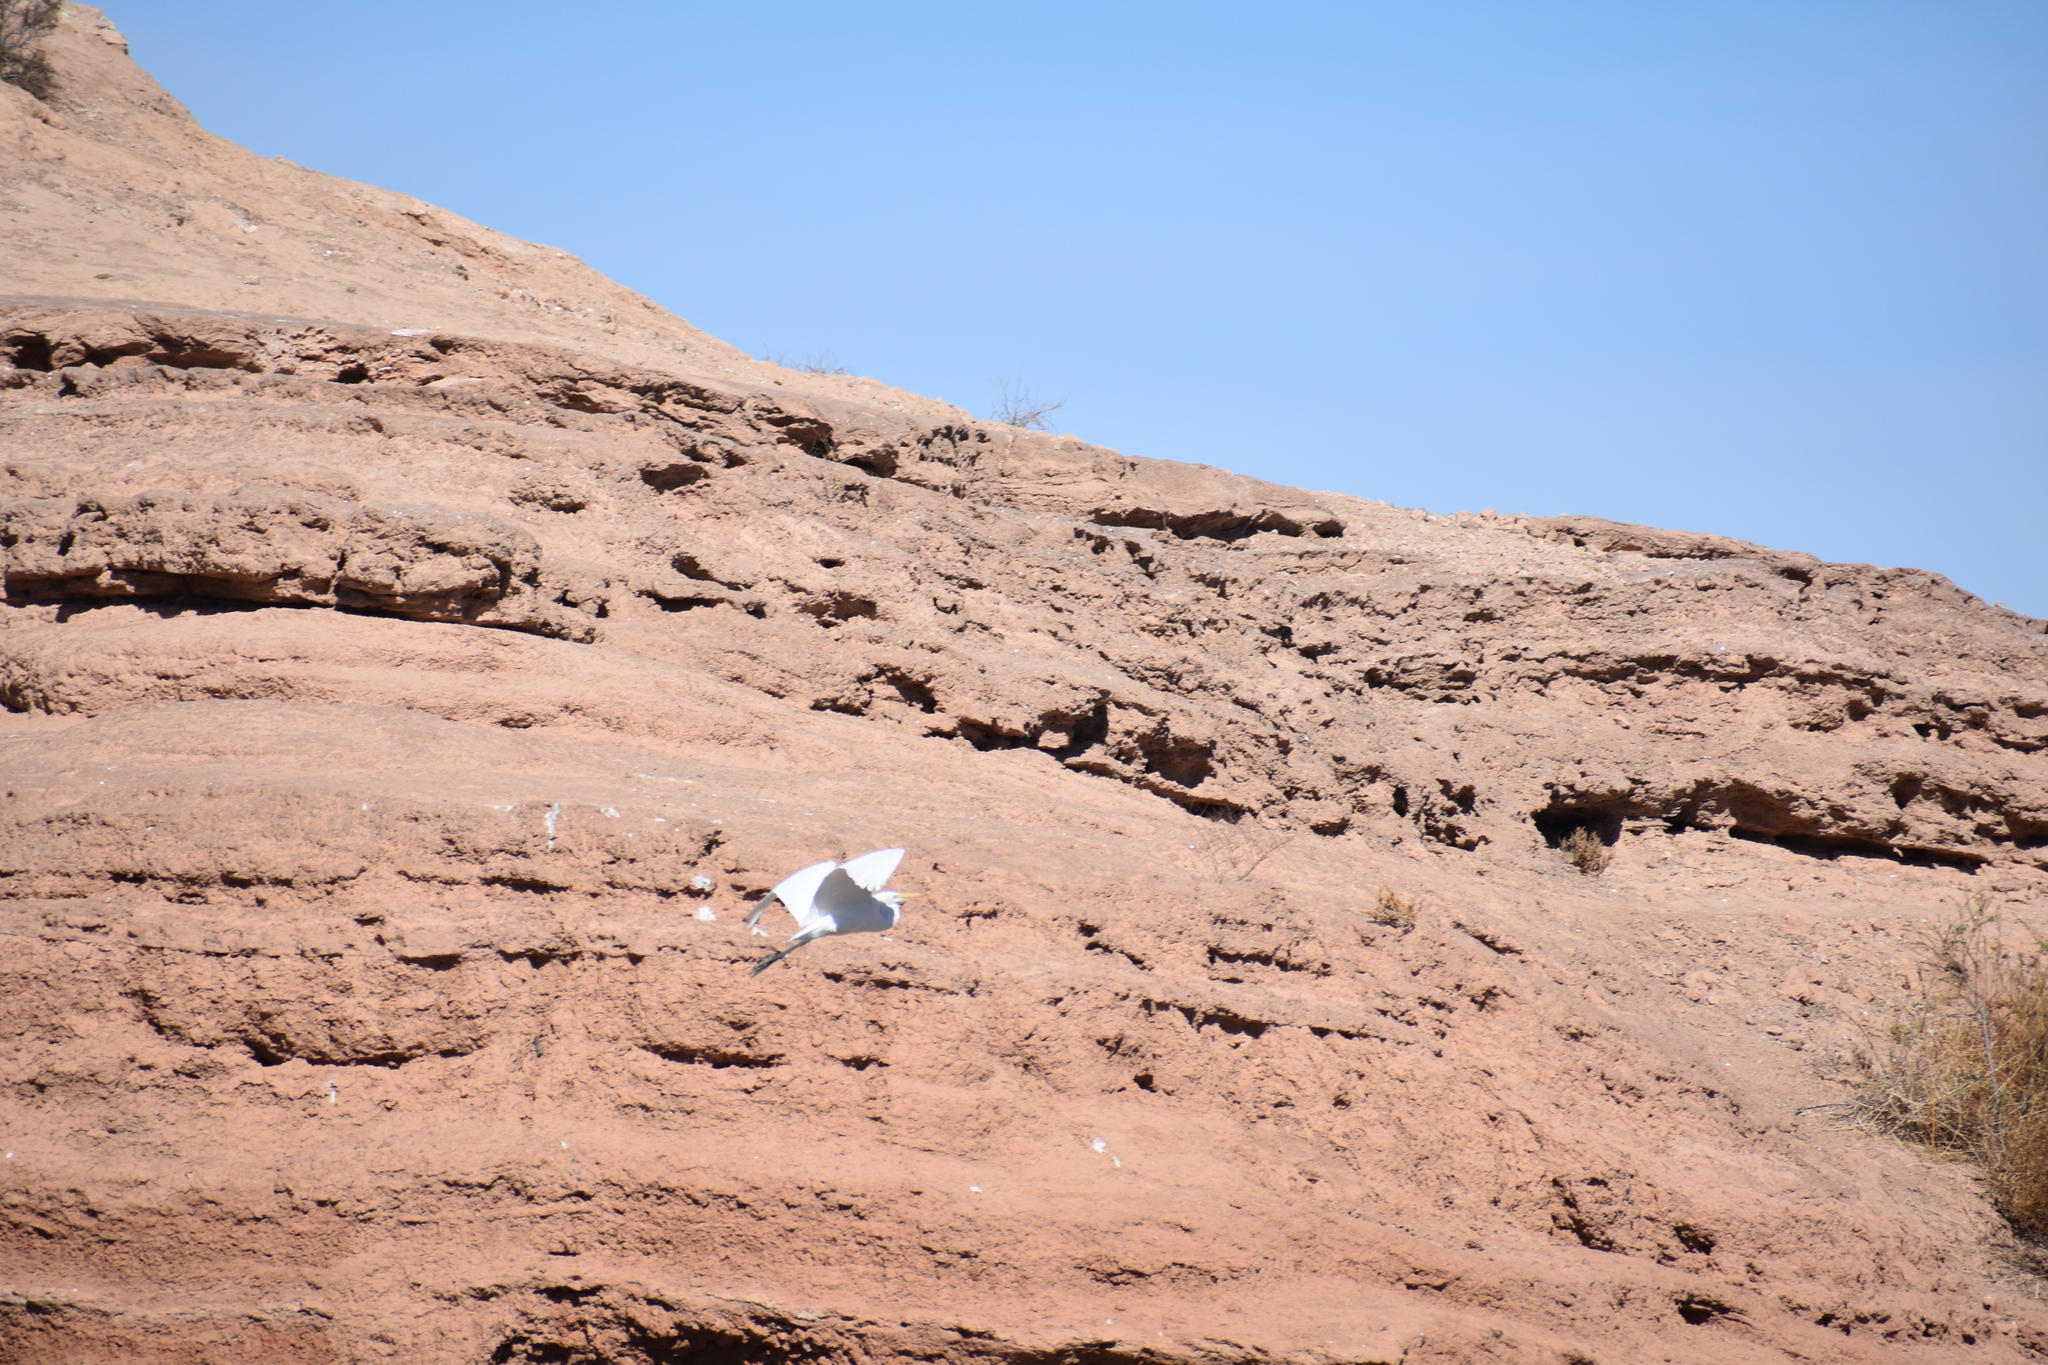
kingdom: Animalia
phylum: Chordata
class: Aves
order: Pelecaniformes
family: Ardeidae
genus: Ardea
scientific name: Ardea alba
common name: Great egret
